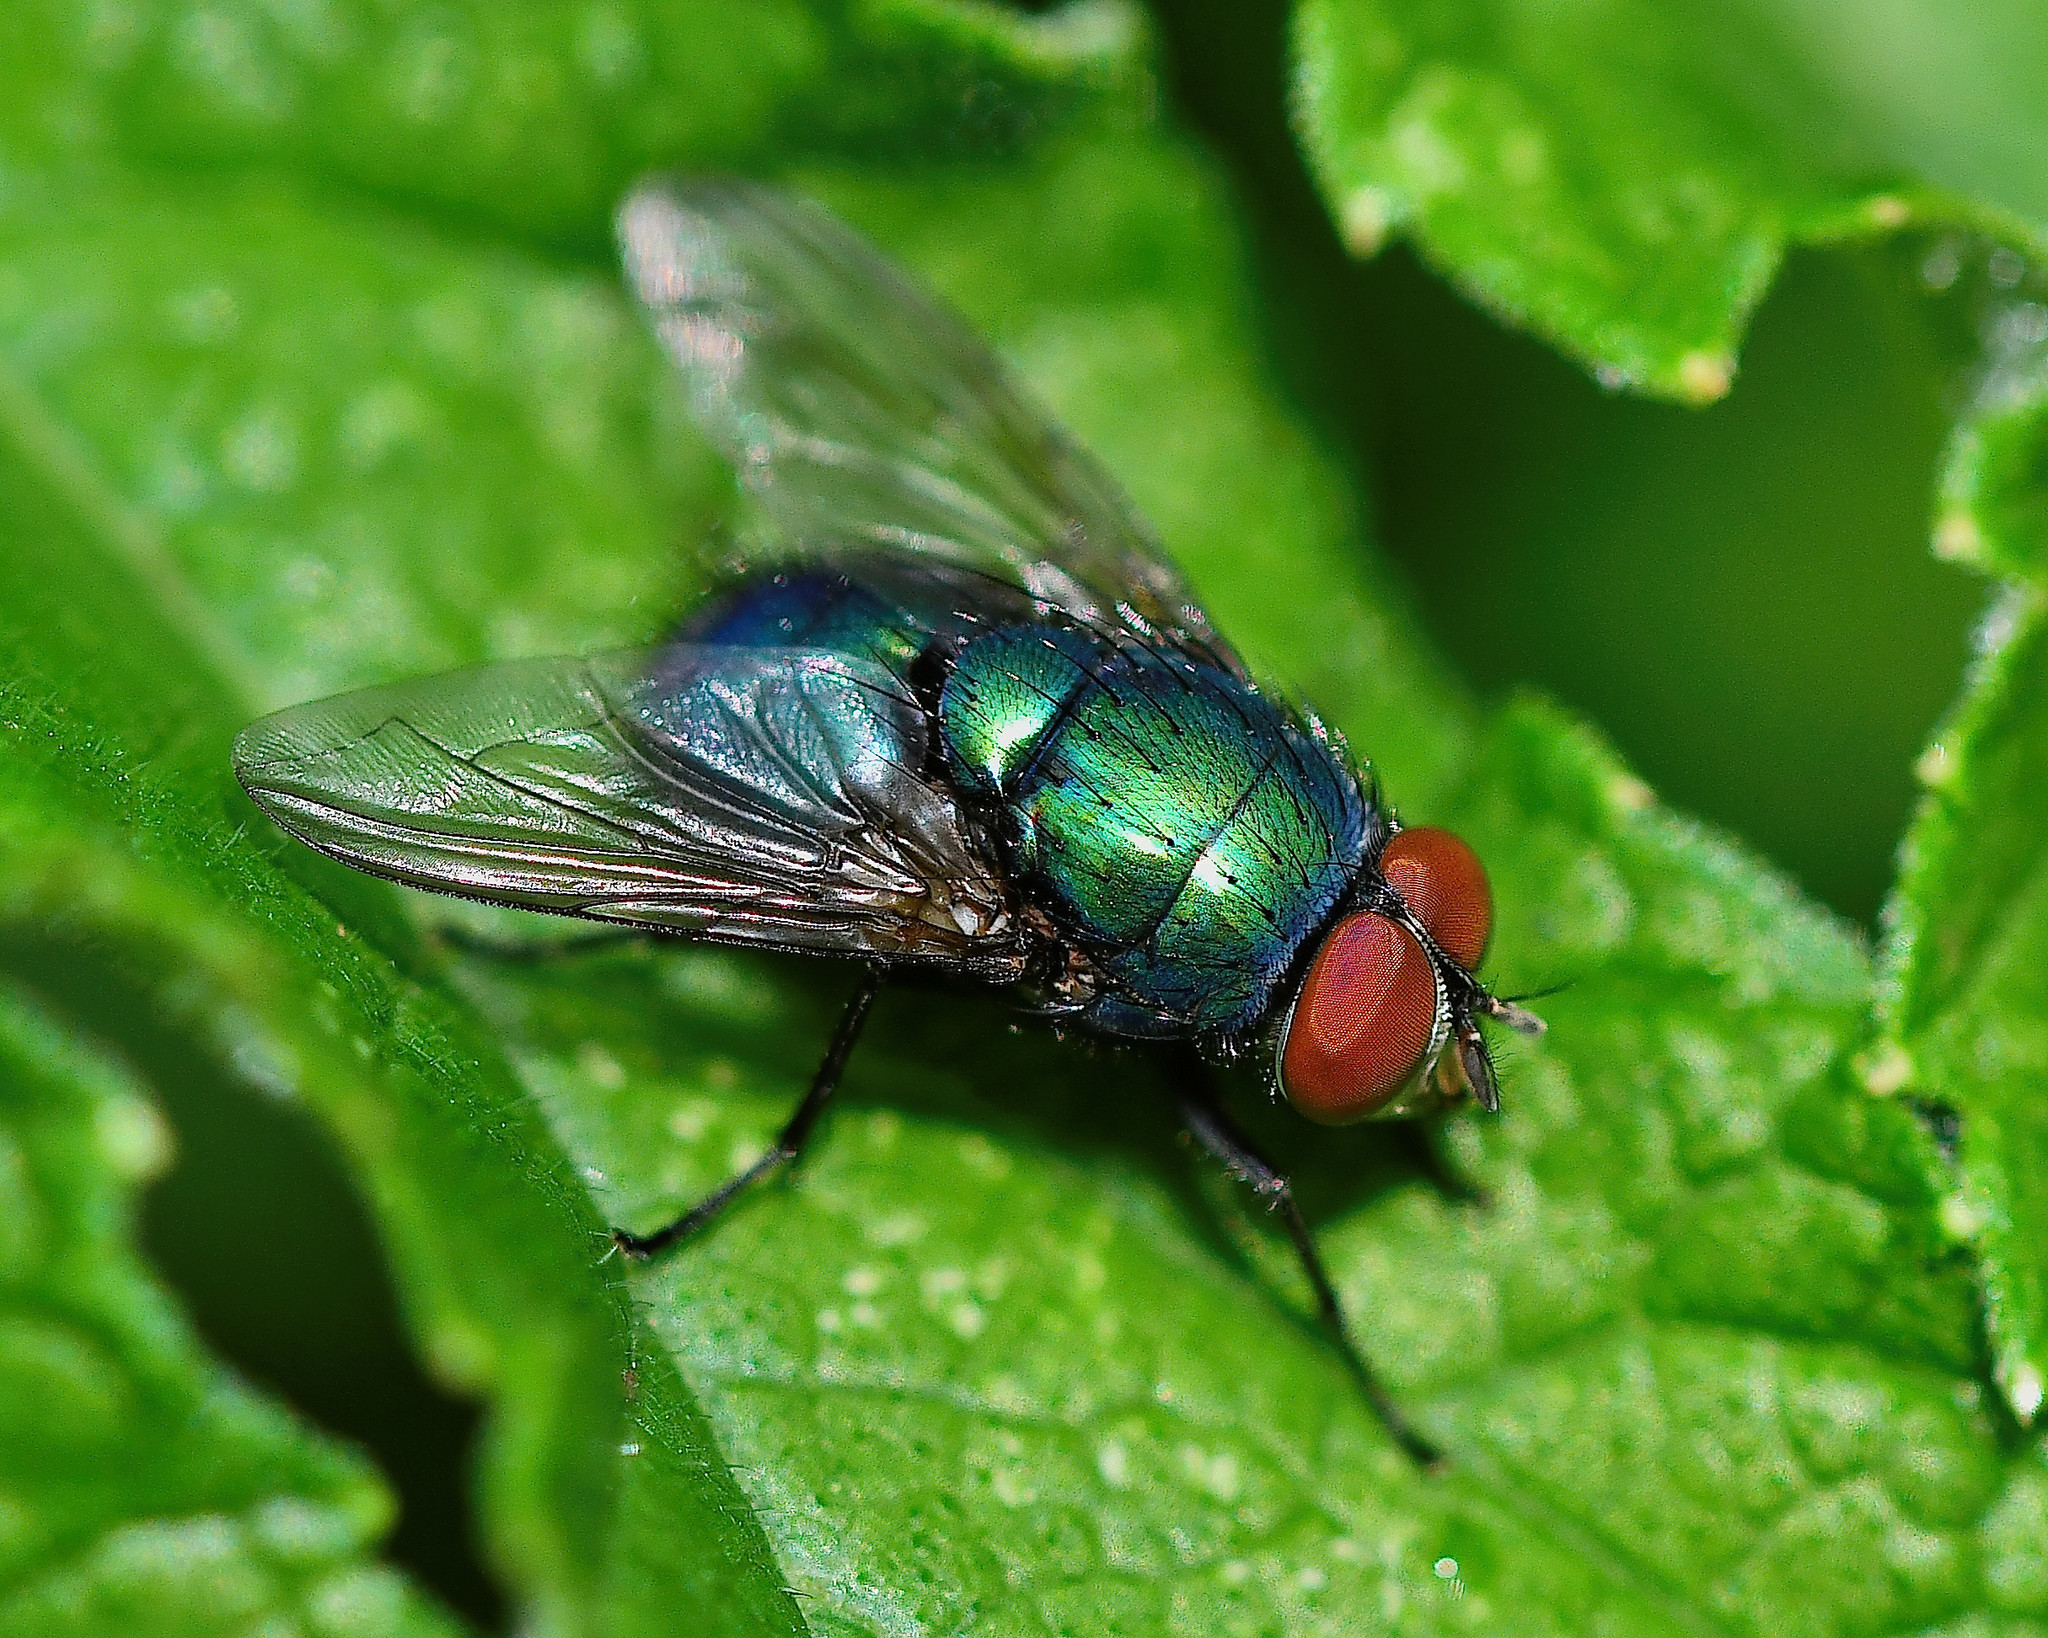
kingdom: Animalia
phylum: Arthropoda
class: Insecta
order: Diptera
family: Calliphoridae
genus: Lucilia
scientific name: Lucilia
